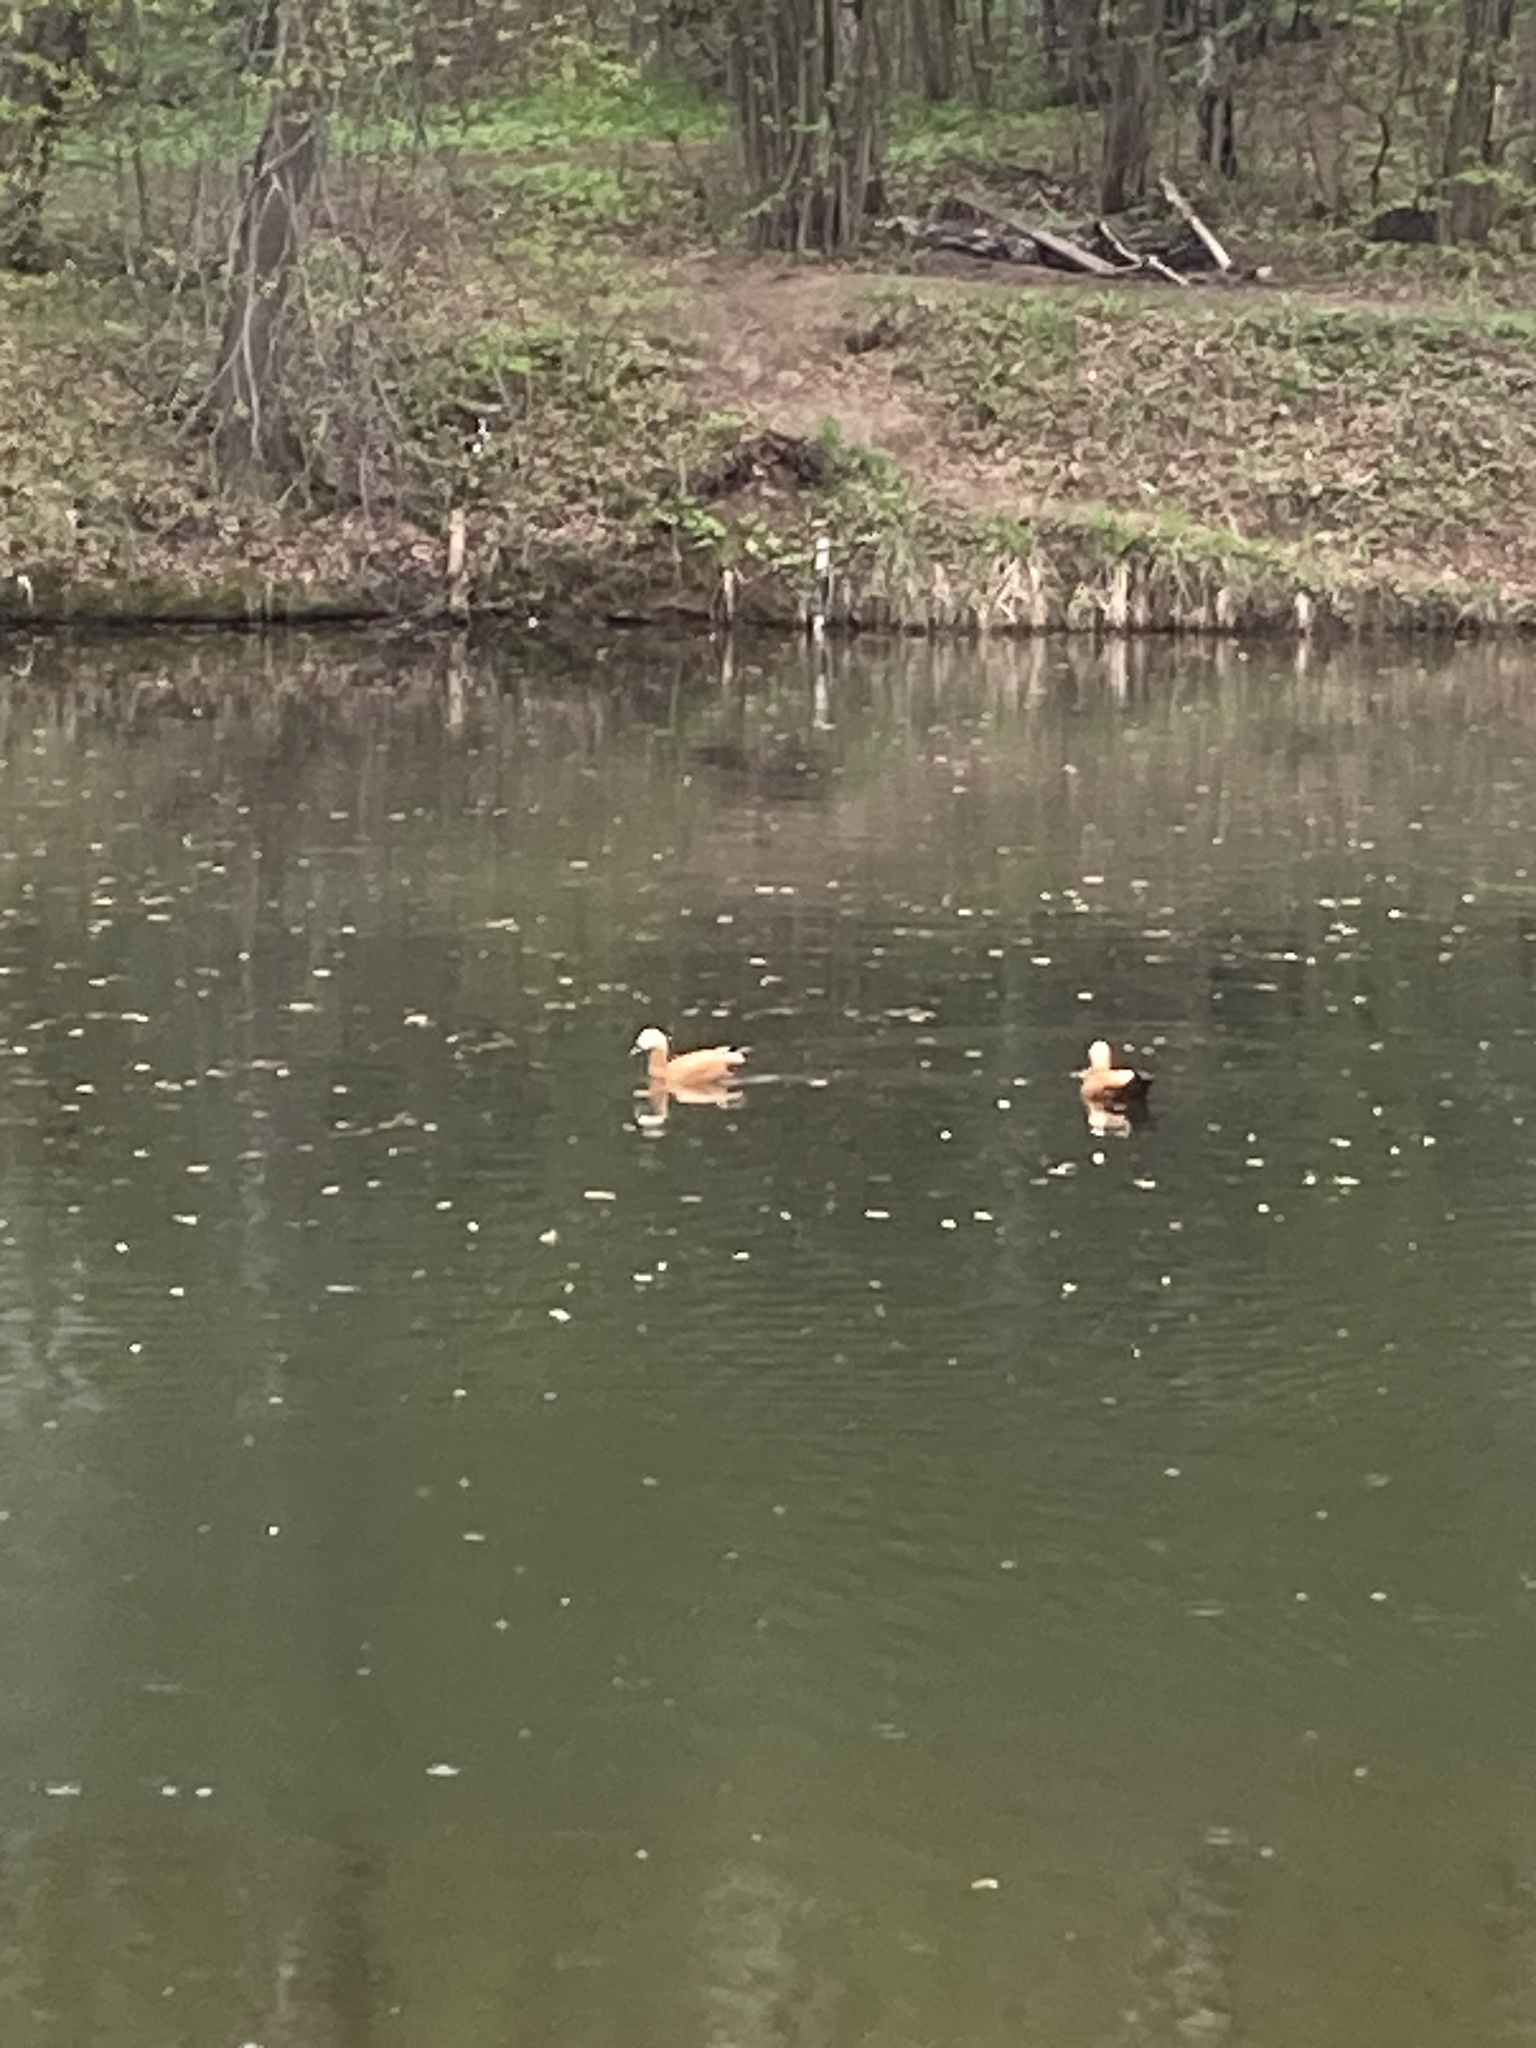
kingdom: Animalia
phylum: Chordata
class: Aves
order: Anseriformes
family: Anatidae
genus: Tadorna
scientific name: Tadorna ferruginea
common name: Ruddy shelduck
